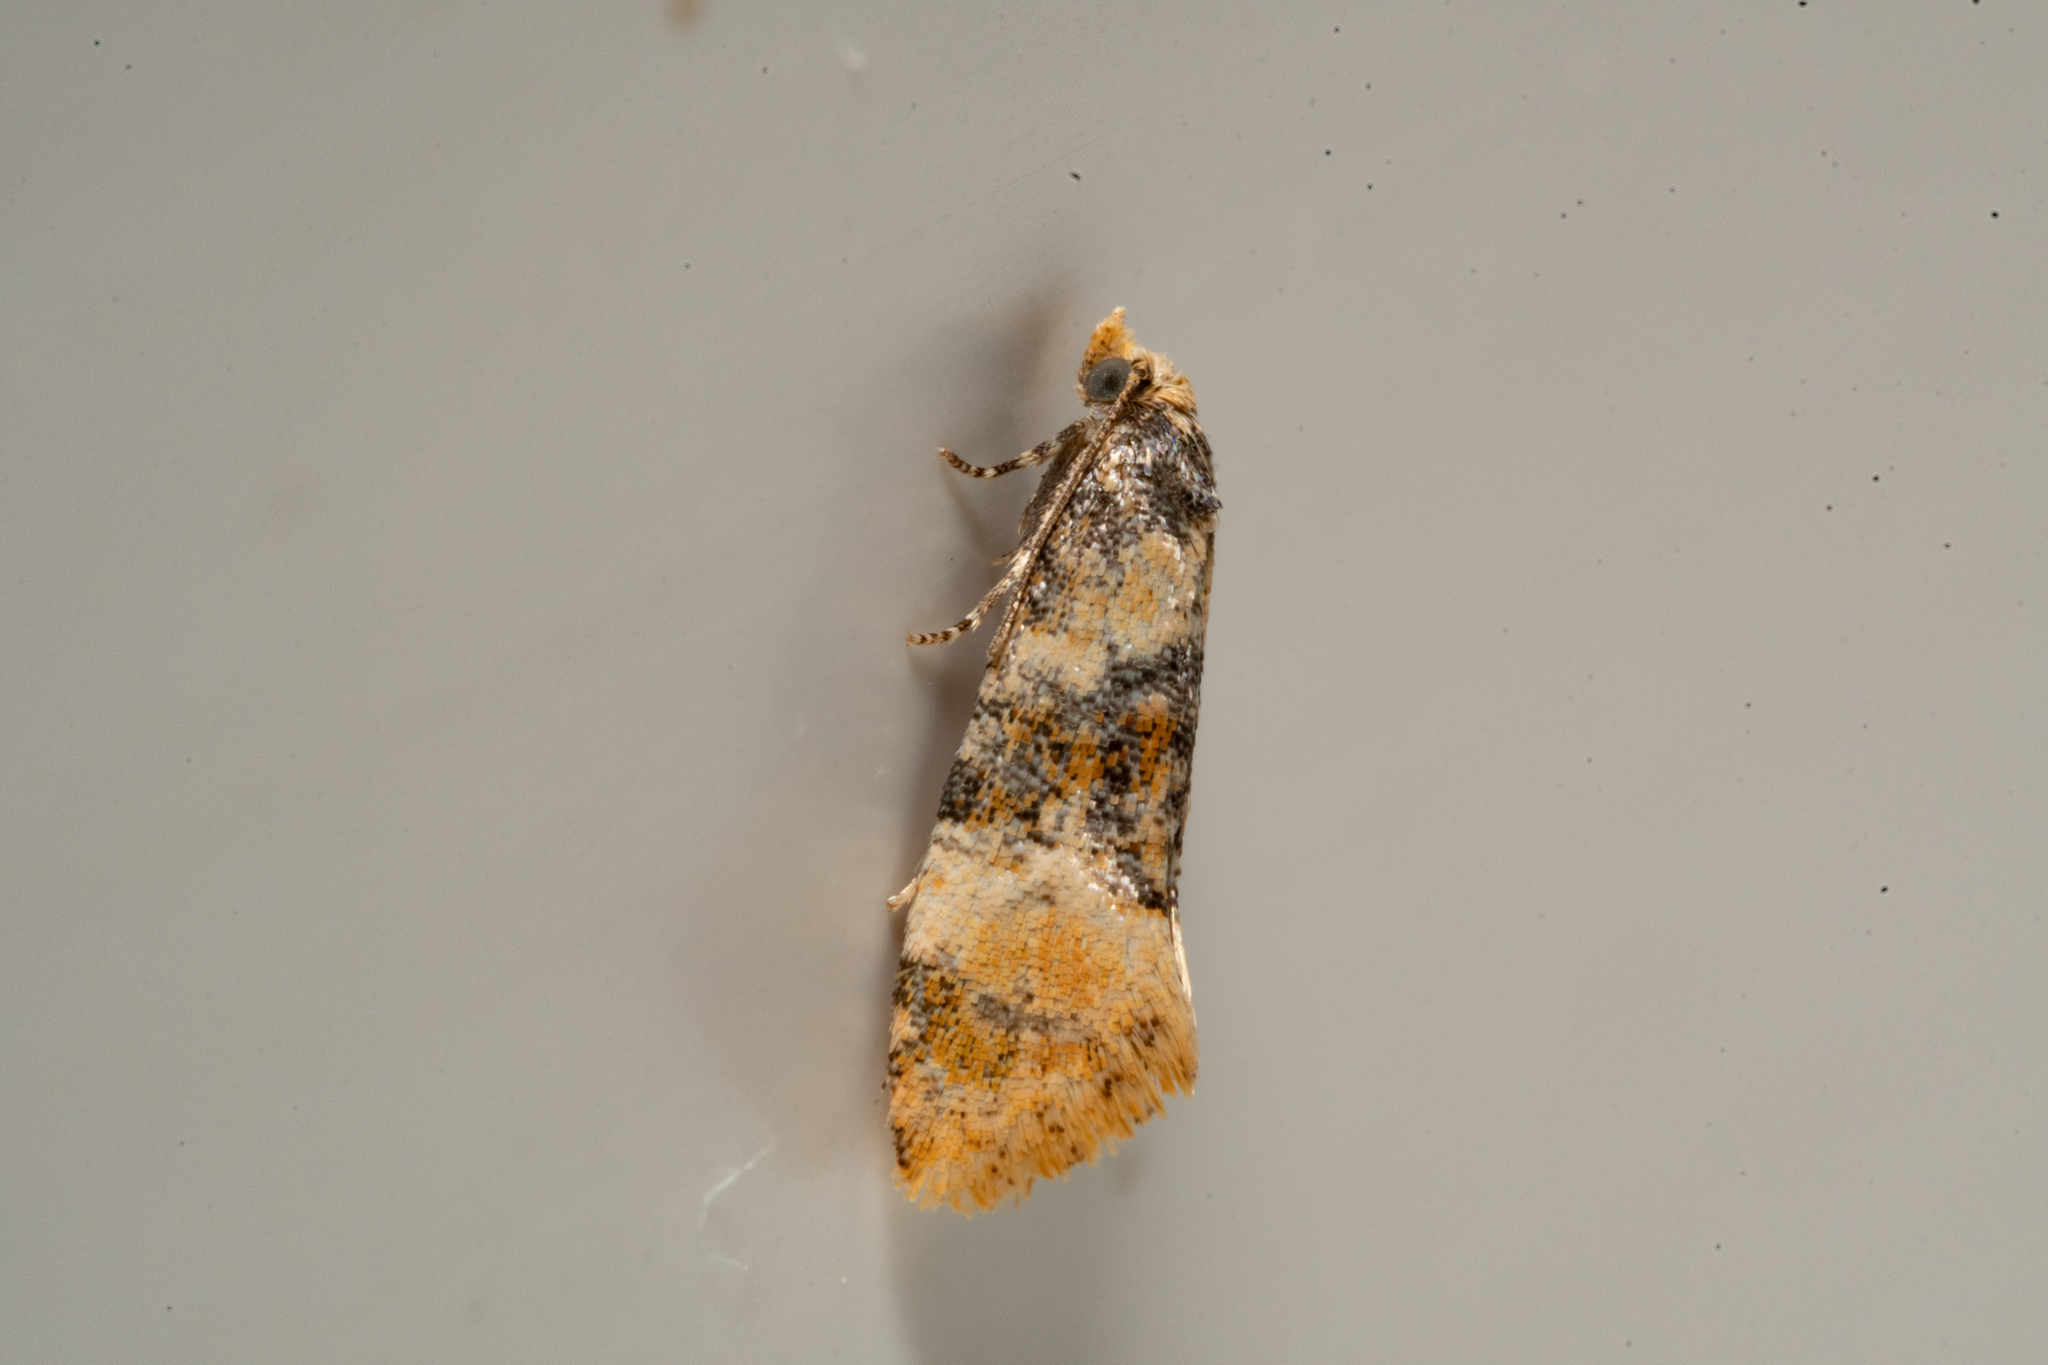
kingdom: Animalia
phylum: Arthropoda
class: Insecta
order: Lepidoptera
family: Tortricidae
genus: Thyraylia
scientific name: Thyraylia nana
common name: Birch conch
